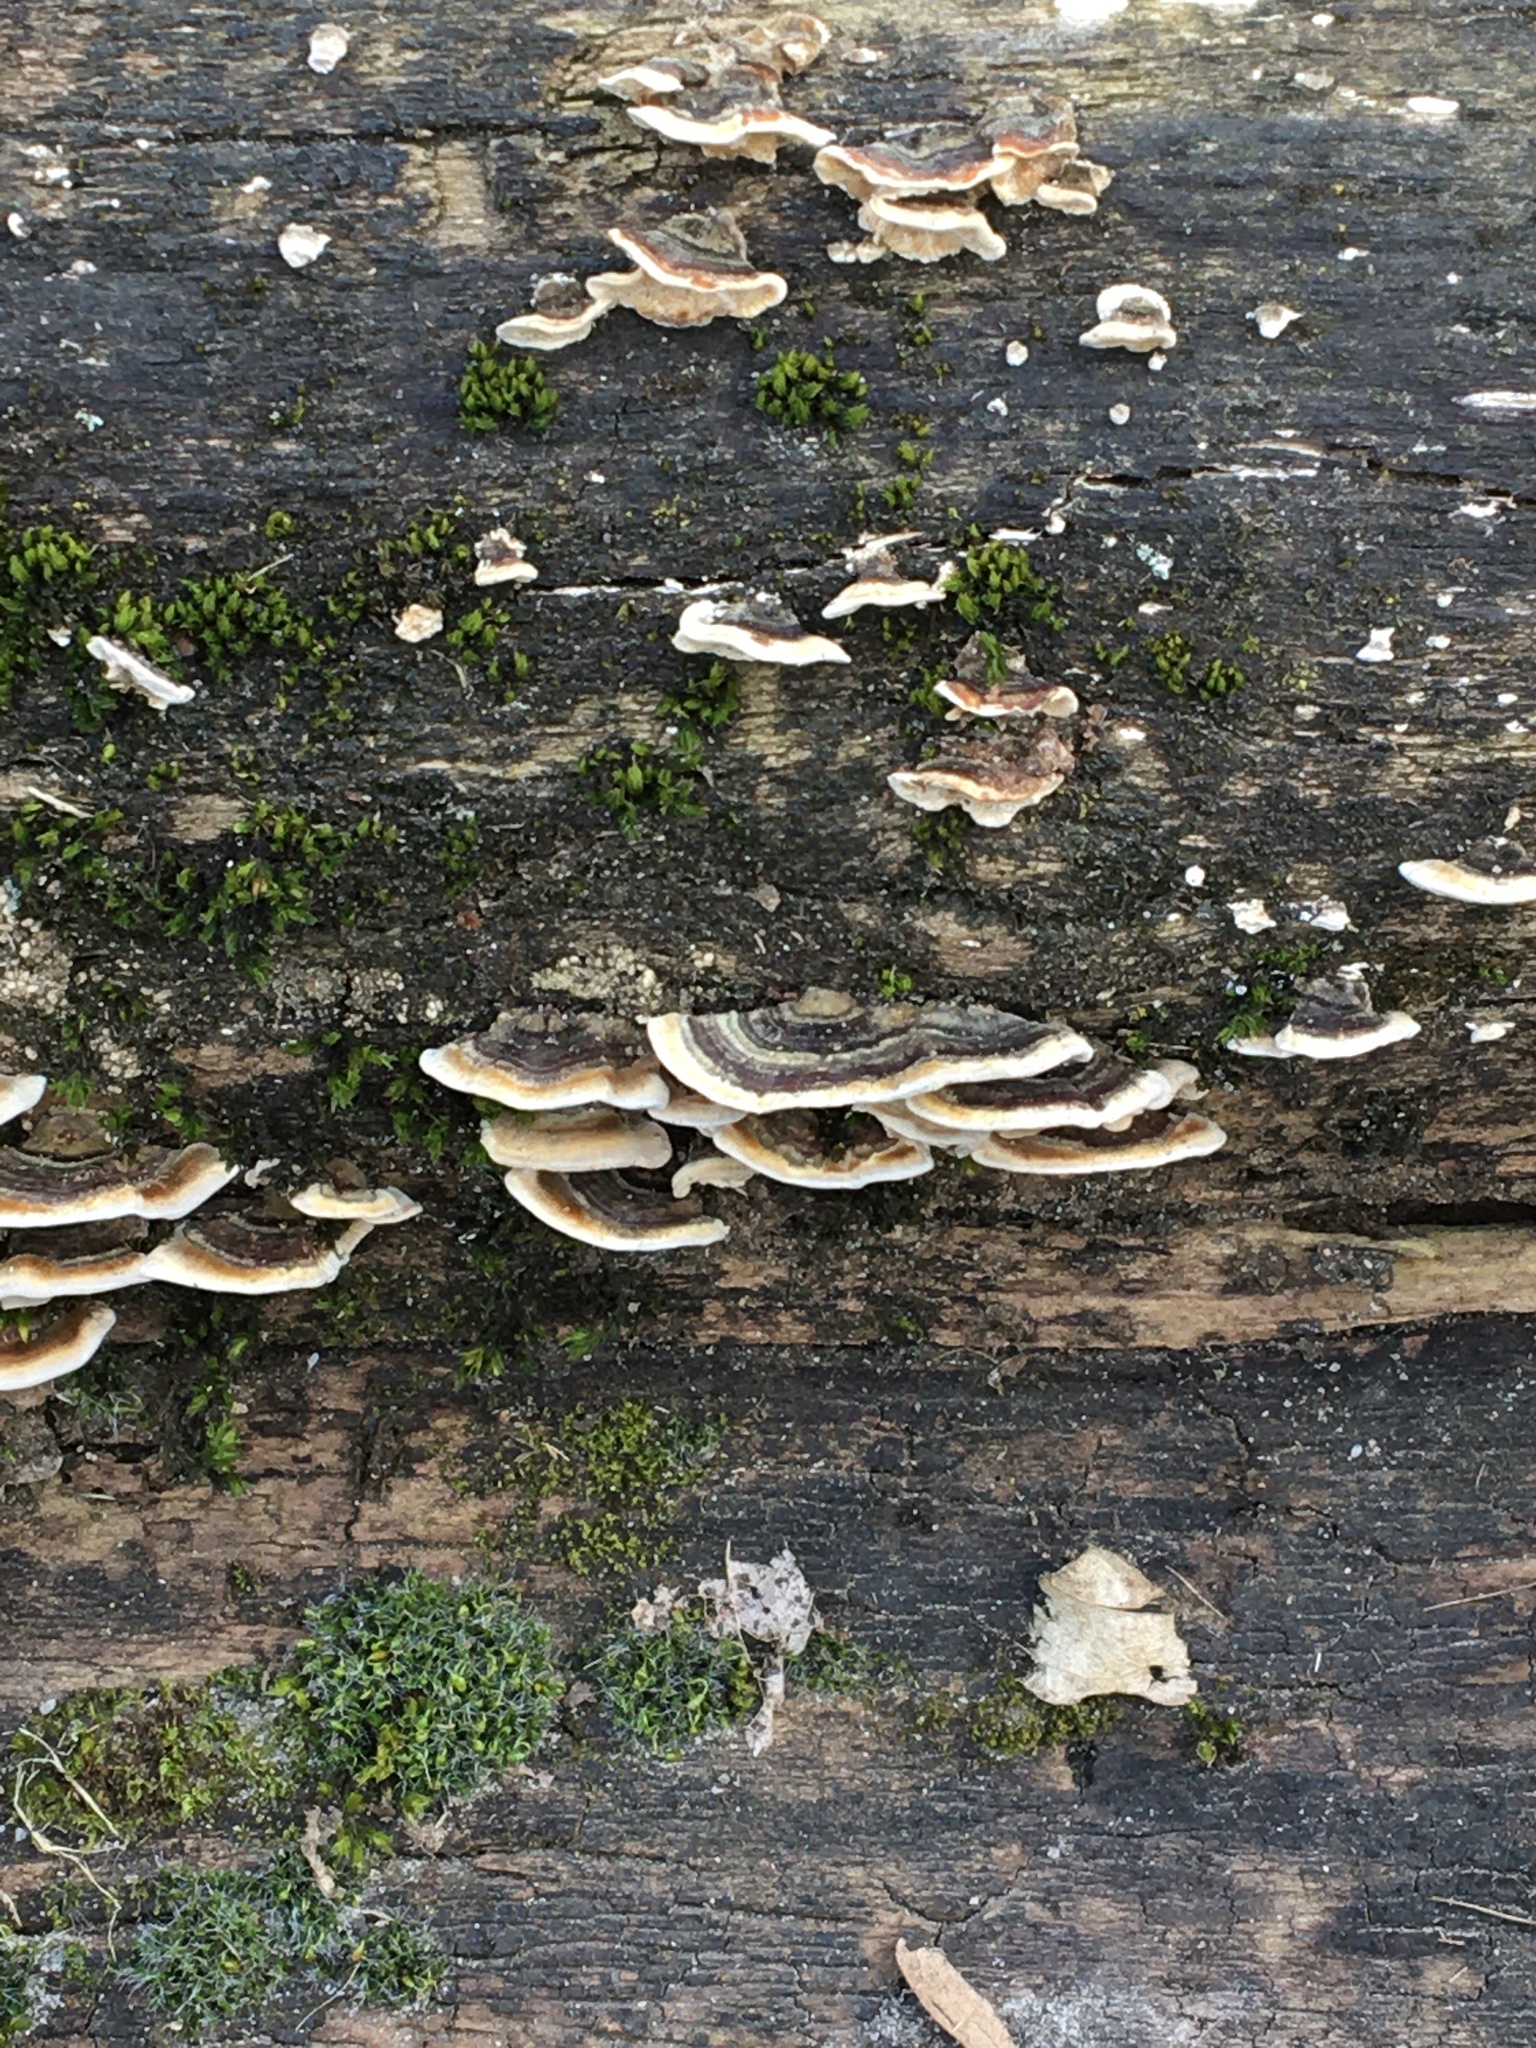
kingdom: Fungi
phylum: Basidiomycota
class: Agaricomycetes
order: Polyporales
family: Polyporaceae
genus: Trametes
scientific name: Trametes versicolor
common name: Turkeytail
